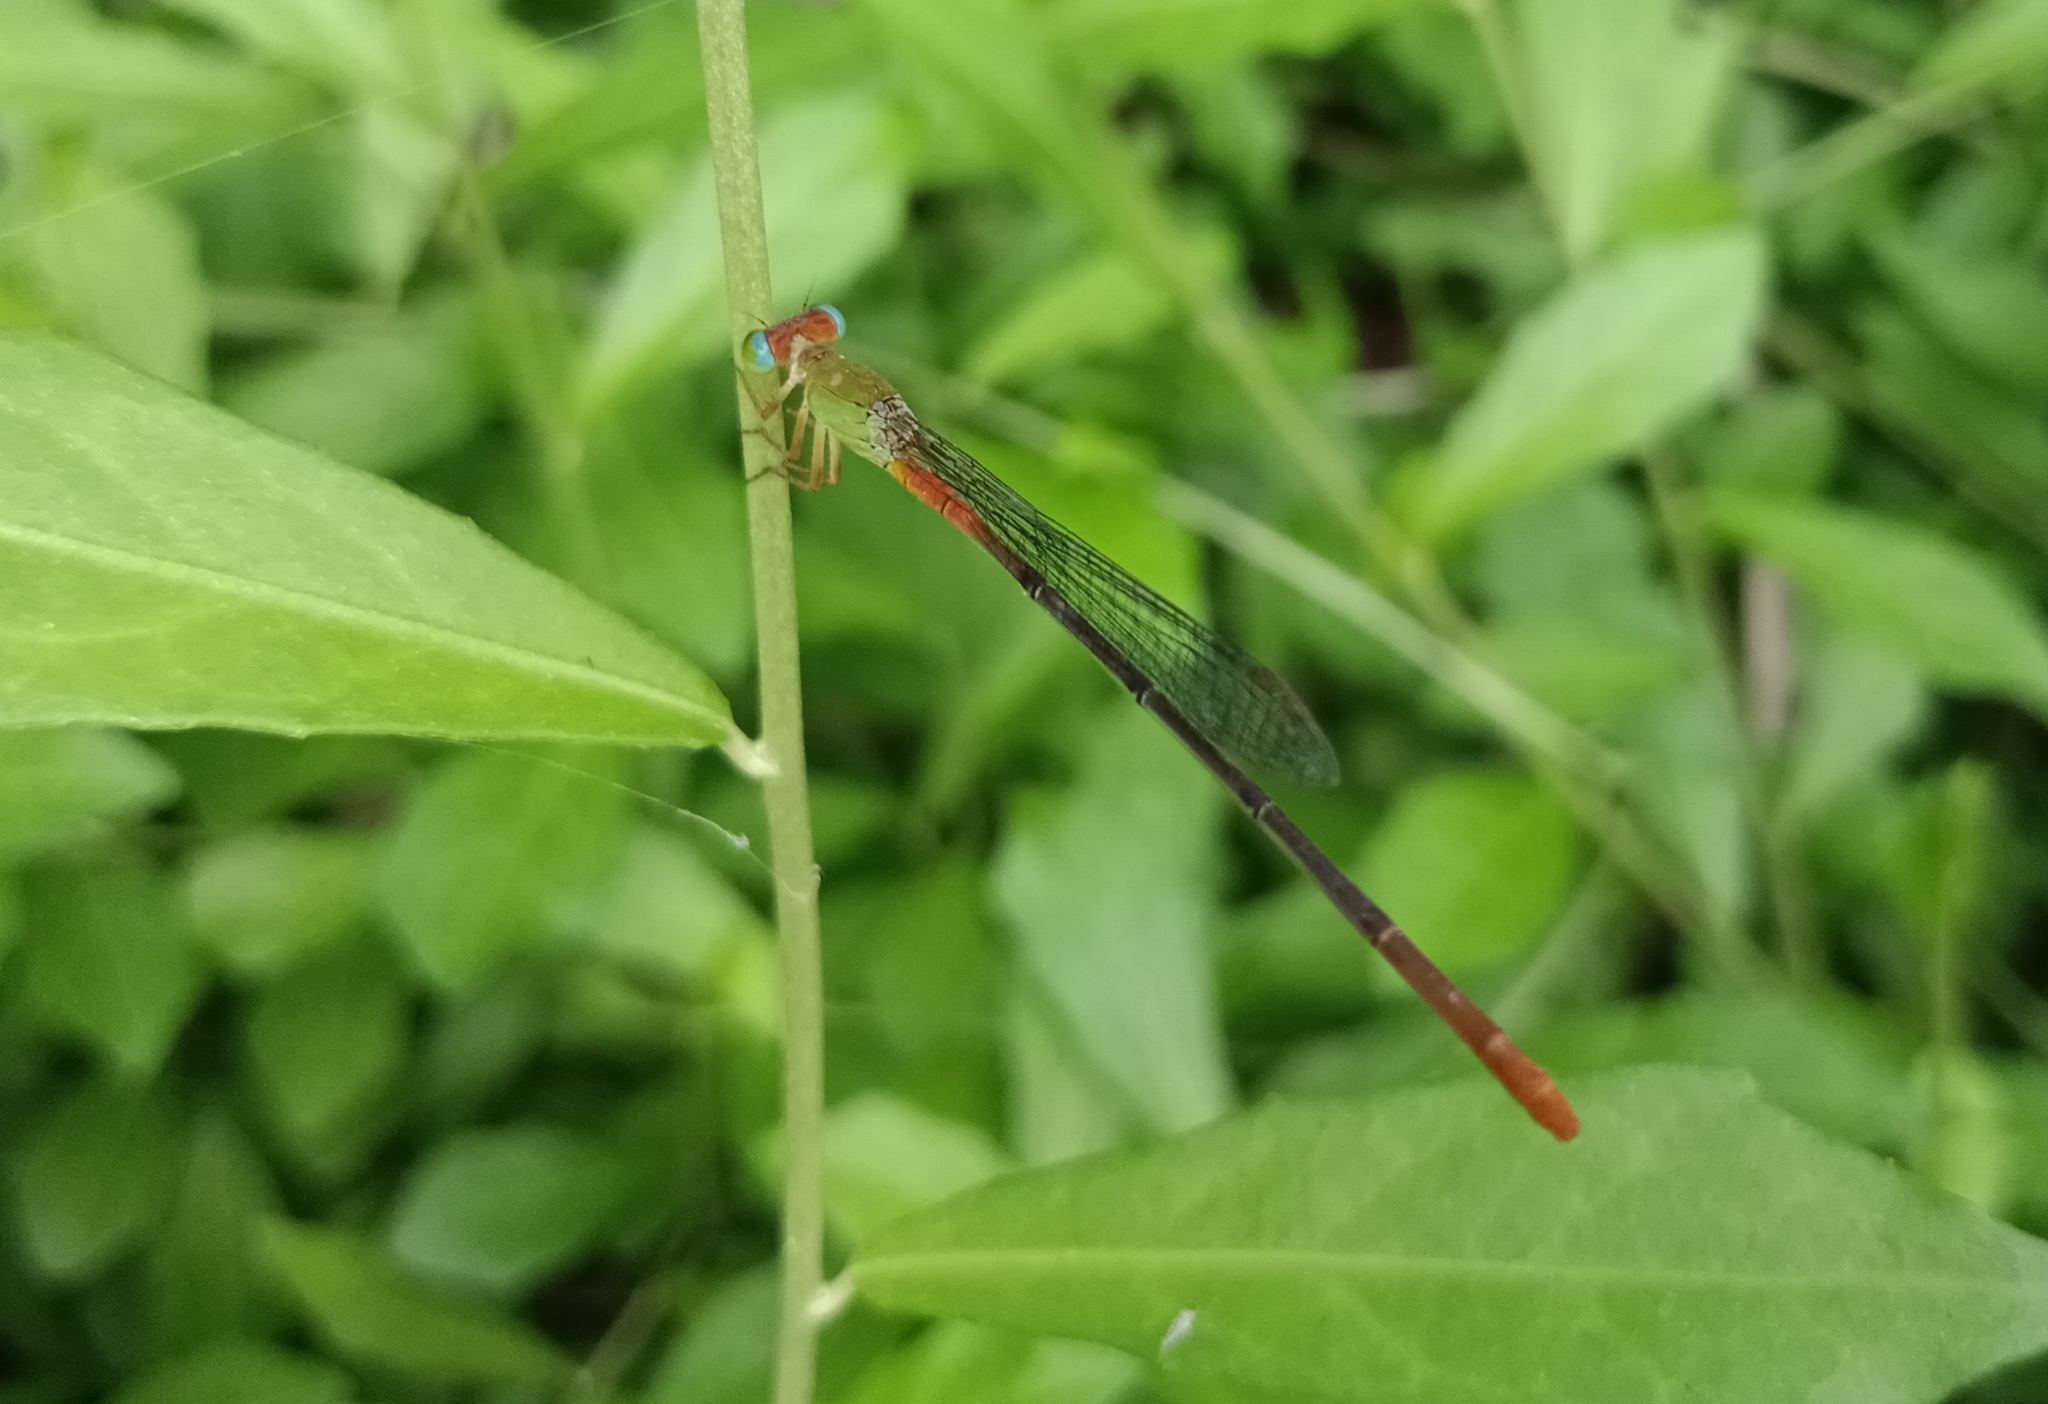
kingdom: Animalia
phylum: Arthropoda
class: Insecta
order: Odonata
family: Coenagrionidae
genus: Ceriagrion
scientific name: Ceriagrion cerinorubellum
